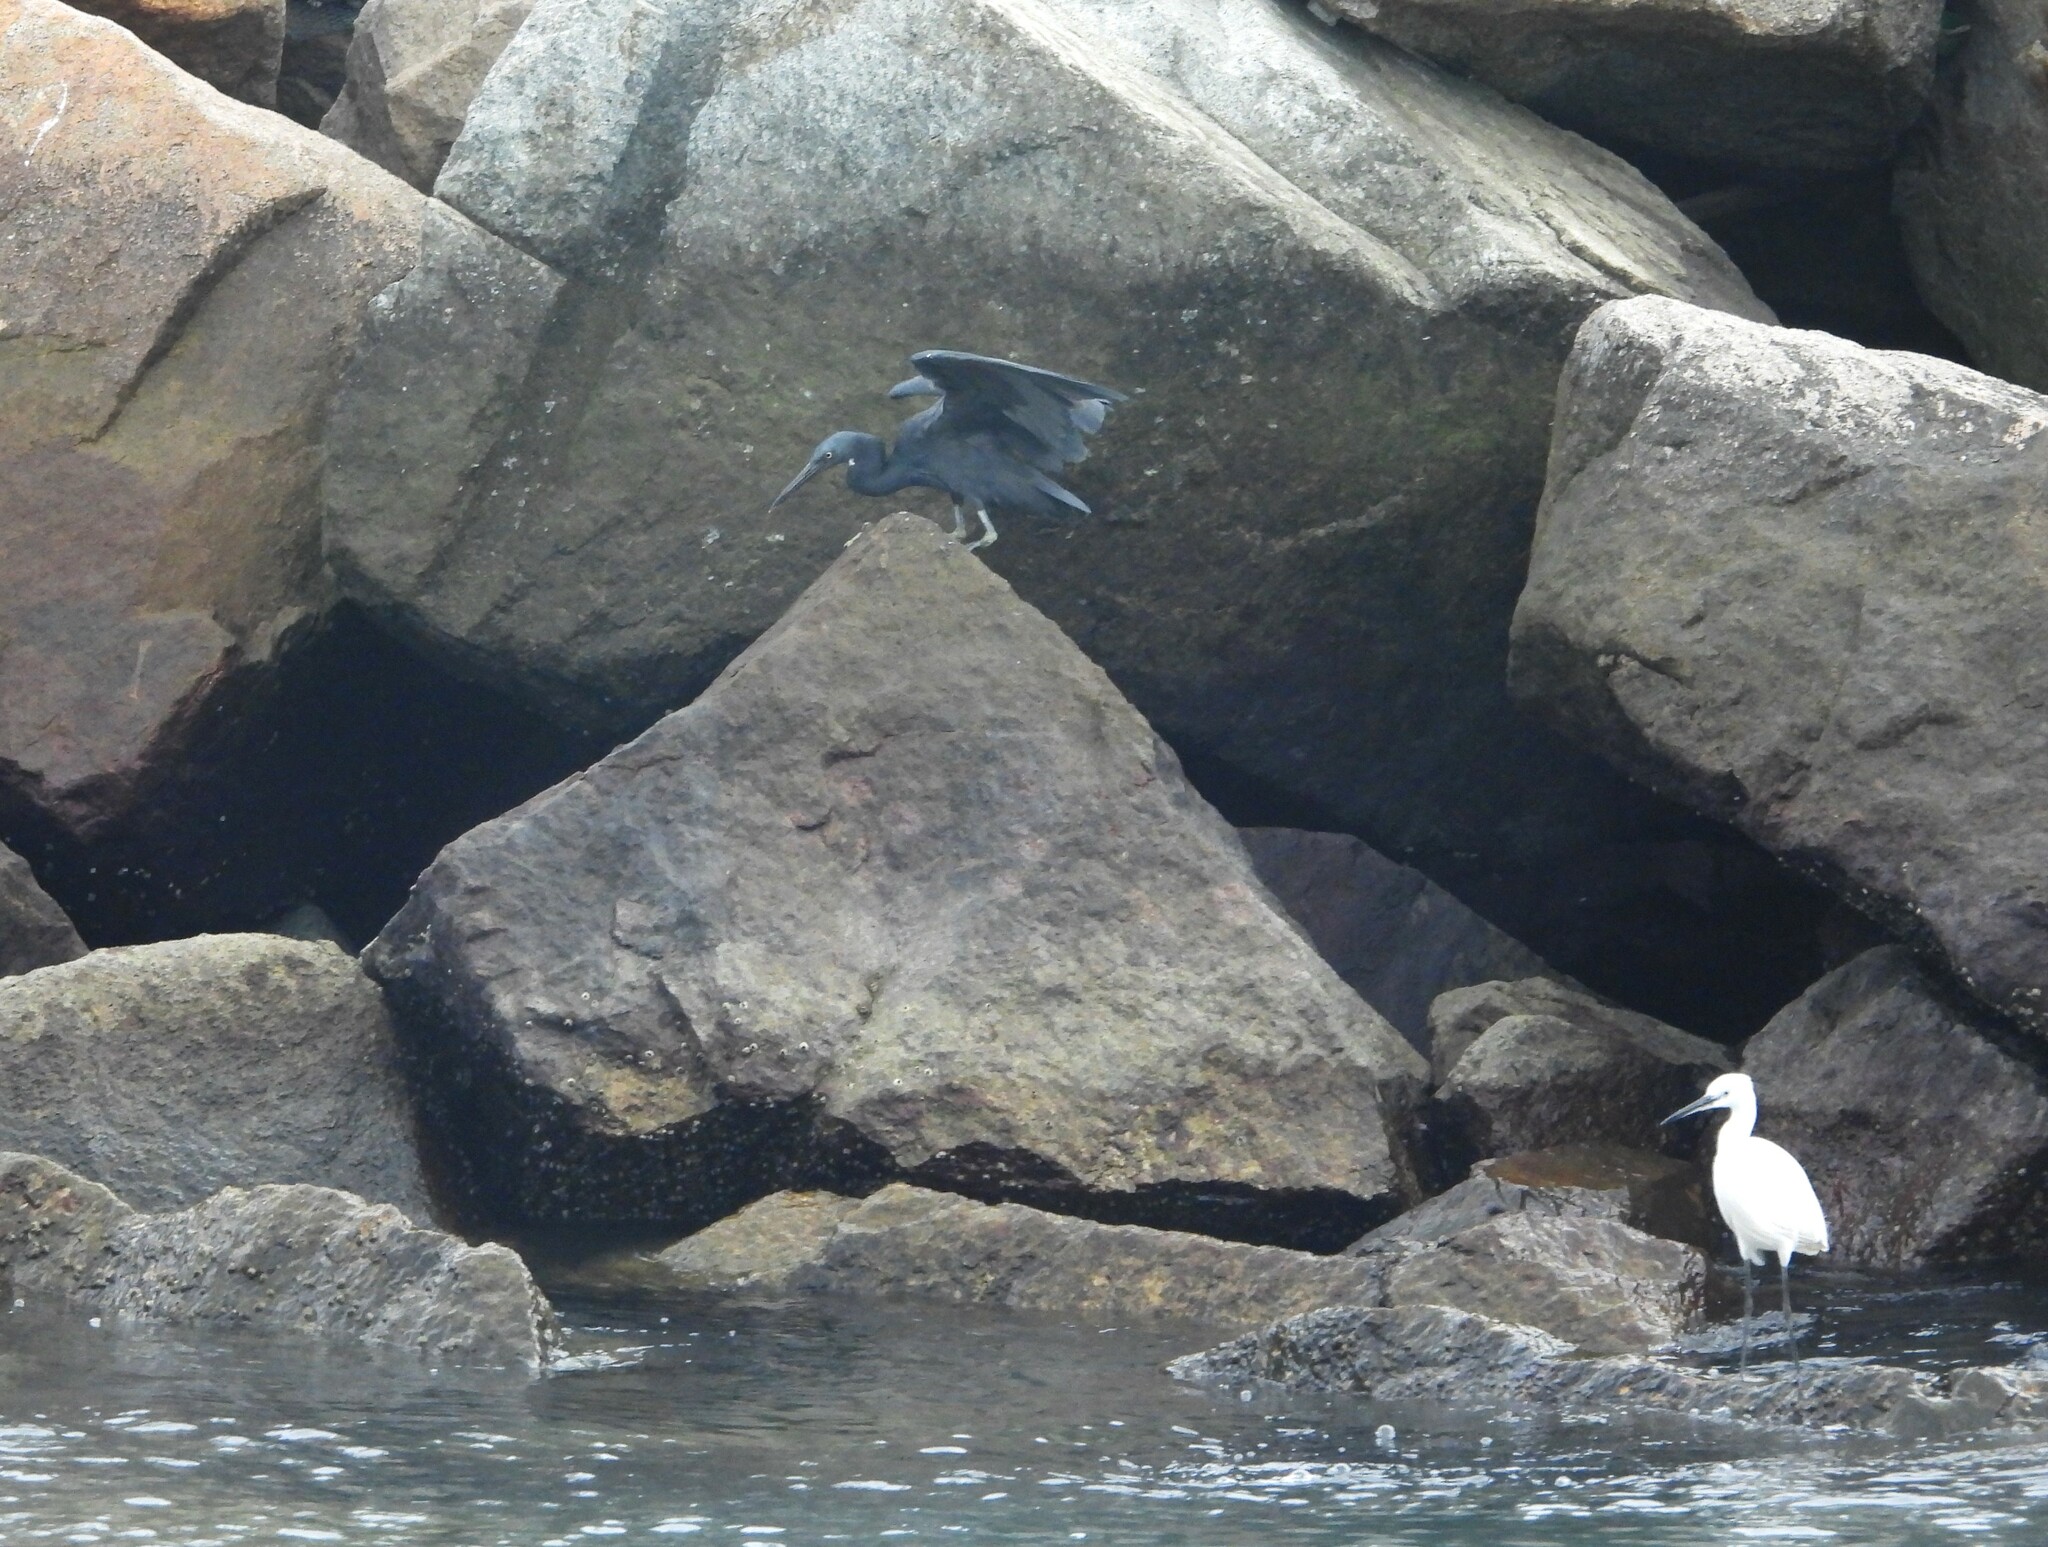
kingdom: Animalia
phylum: Chordata
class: Aves
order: Pelecaniformes
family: Ardeidae
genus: Egretta
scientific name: Egretta sacra
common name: Pacific reef heron
